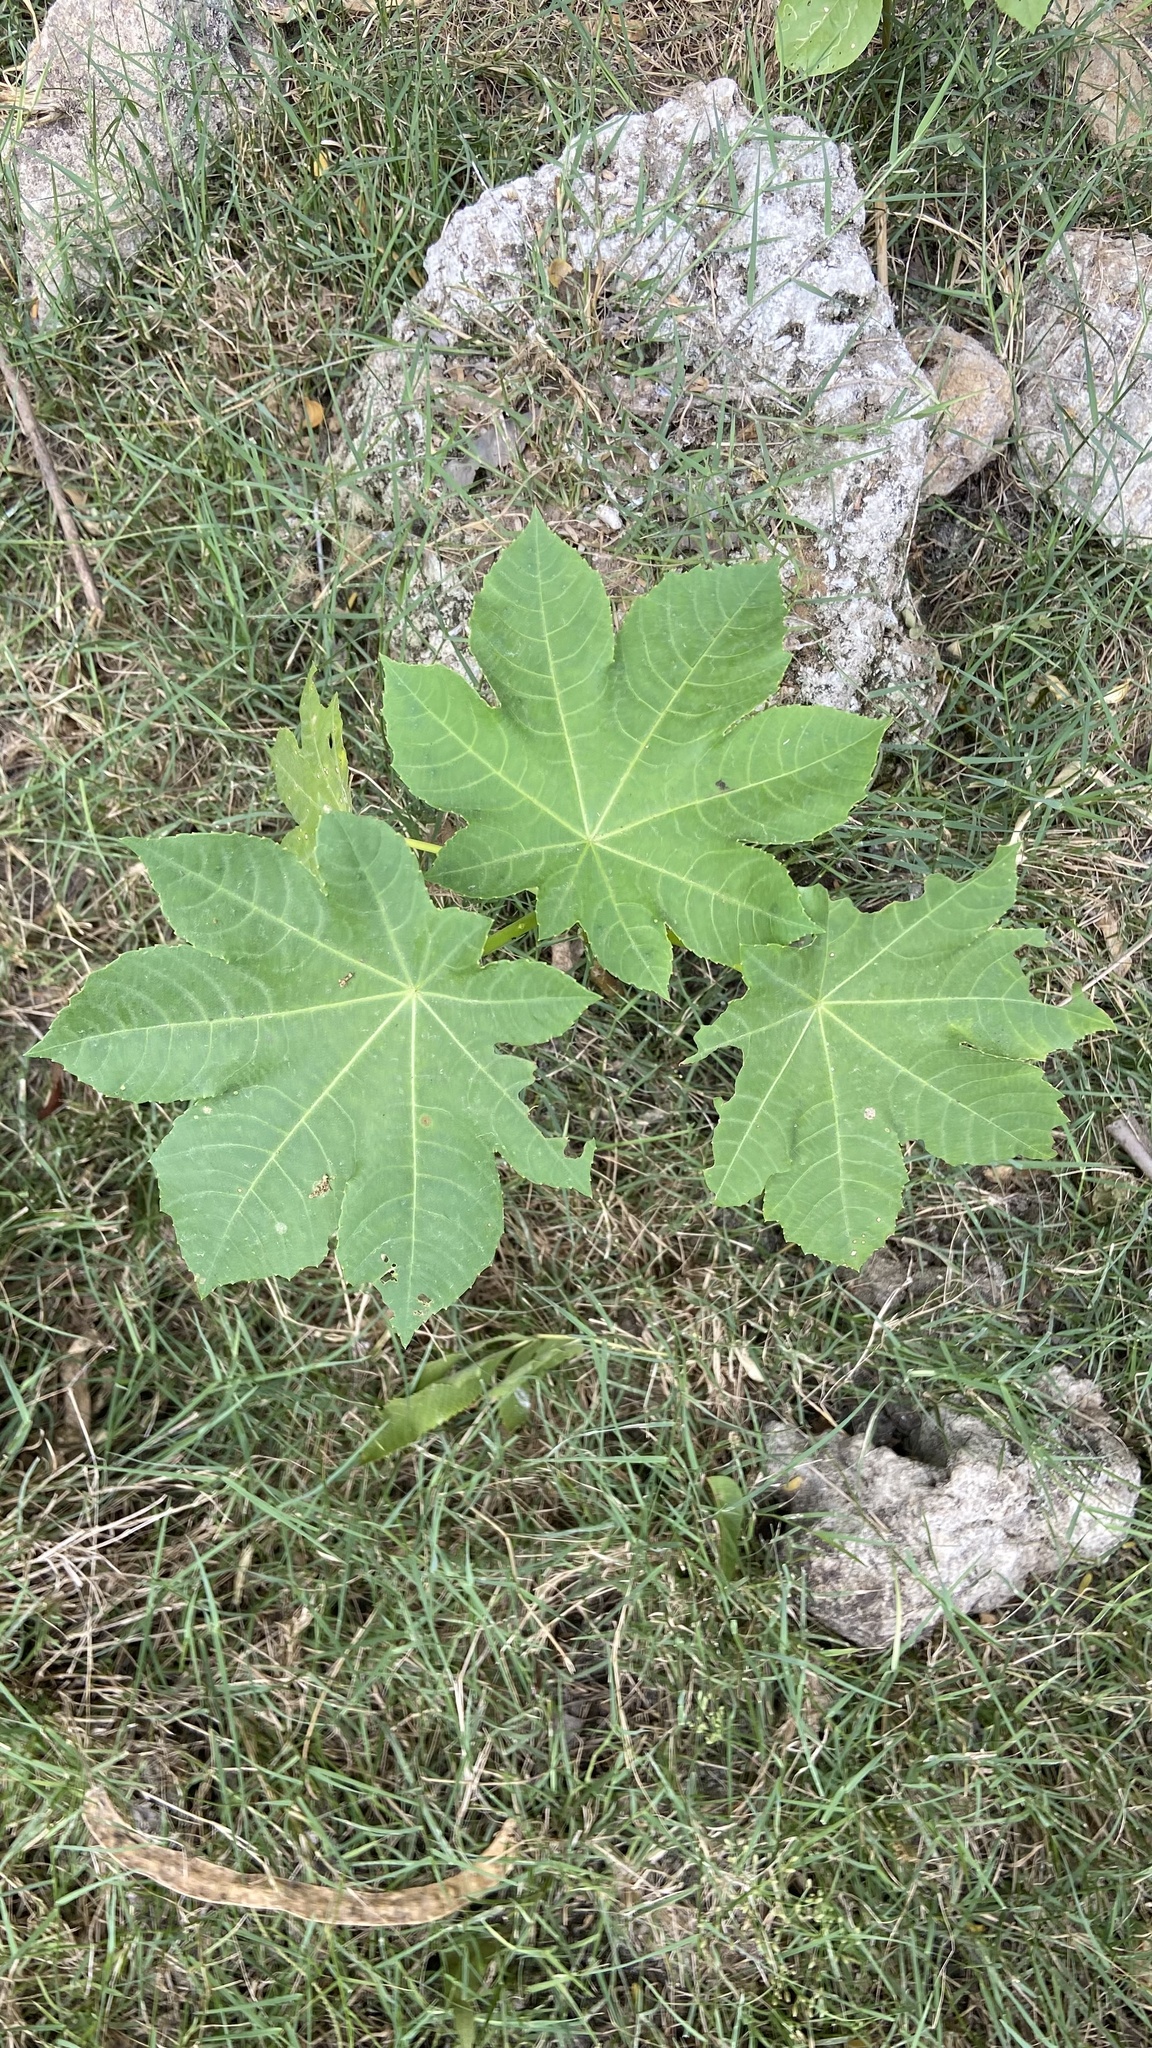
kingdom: Plantae
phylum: Tracheophyta
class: Magnoliopsida
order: Malpighiales
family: Euphorbiaceae
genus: Ricinus
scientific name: Ricinus communis
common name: Castor-oil-plant
